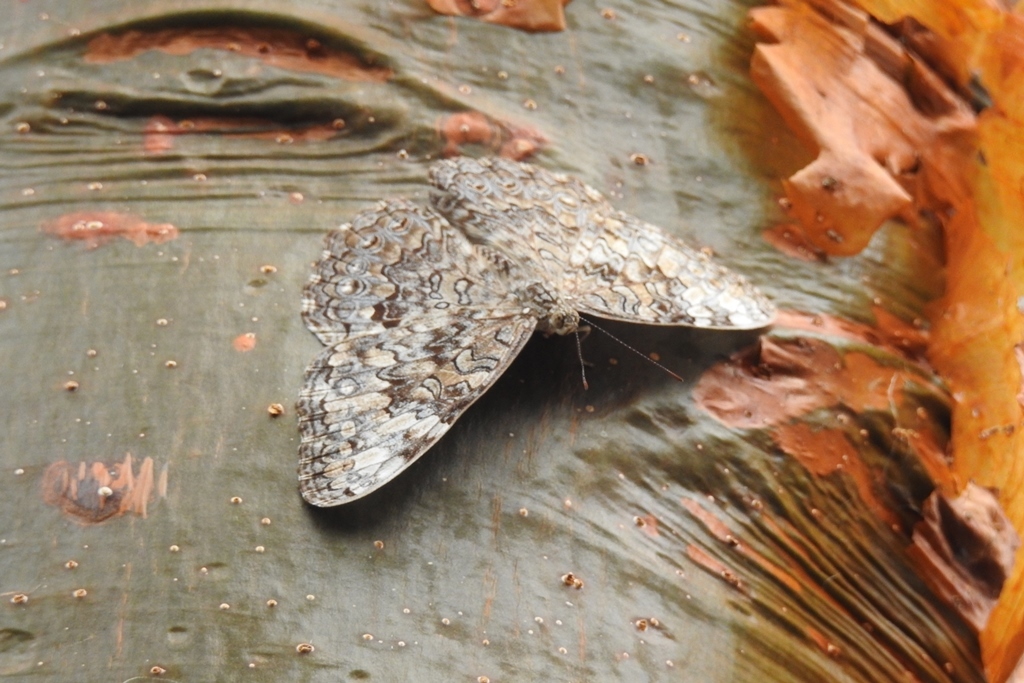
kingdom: Animalia
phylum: Arthropoda
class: Insecta
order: Lepidoptera
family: Nymphalidae
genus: Hamadryas
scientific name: Hamadryas glauconome
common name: Glaucous cracker
